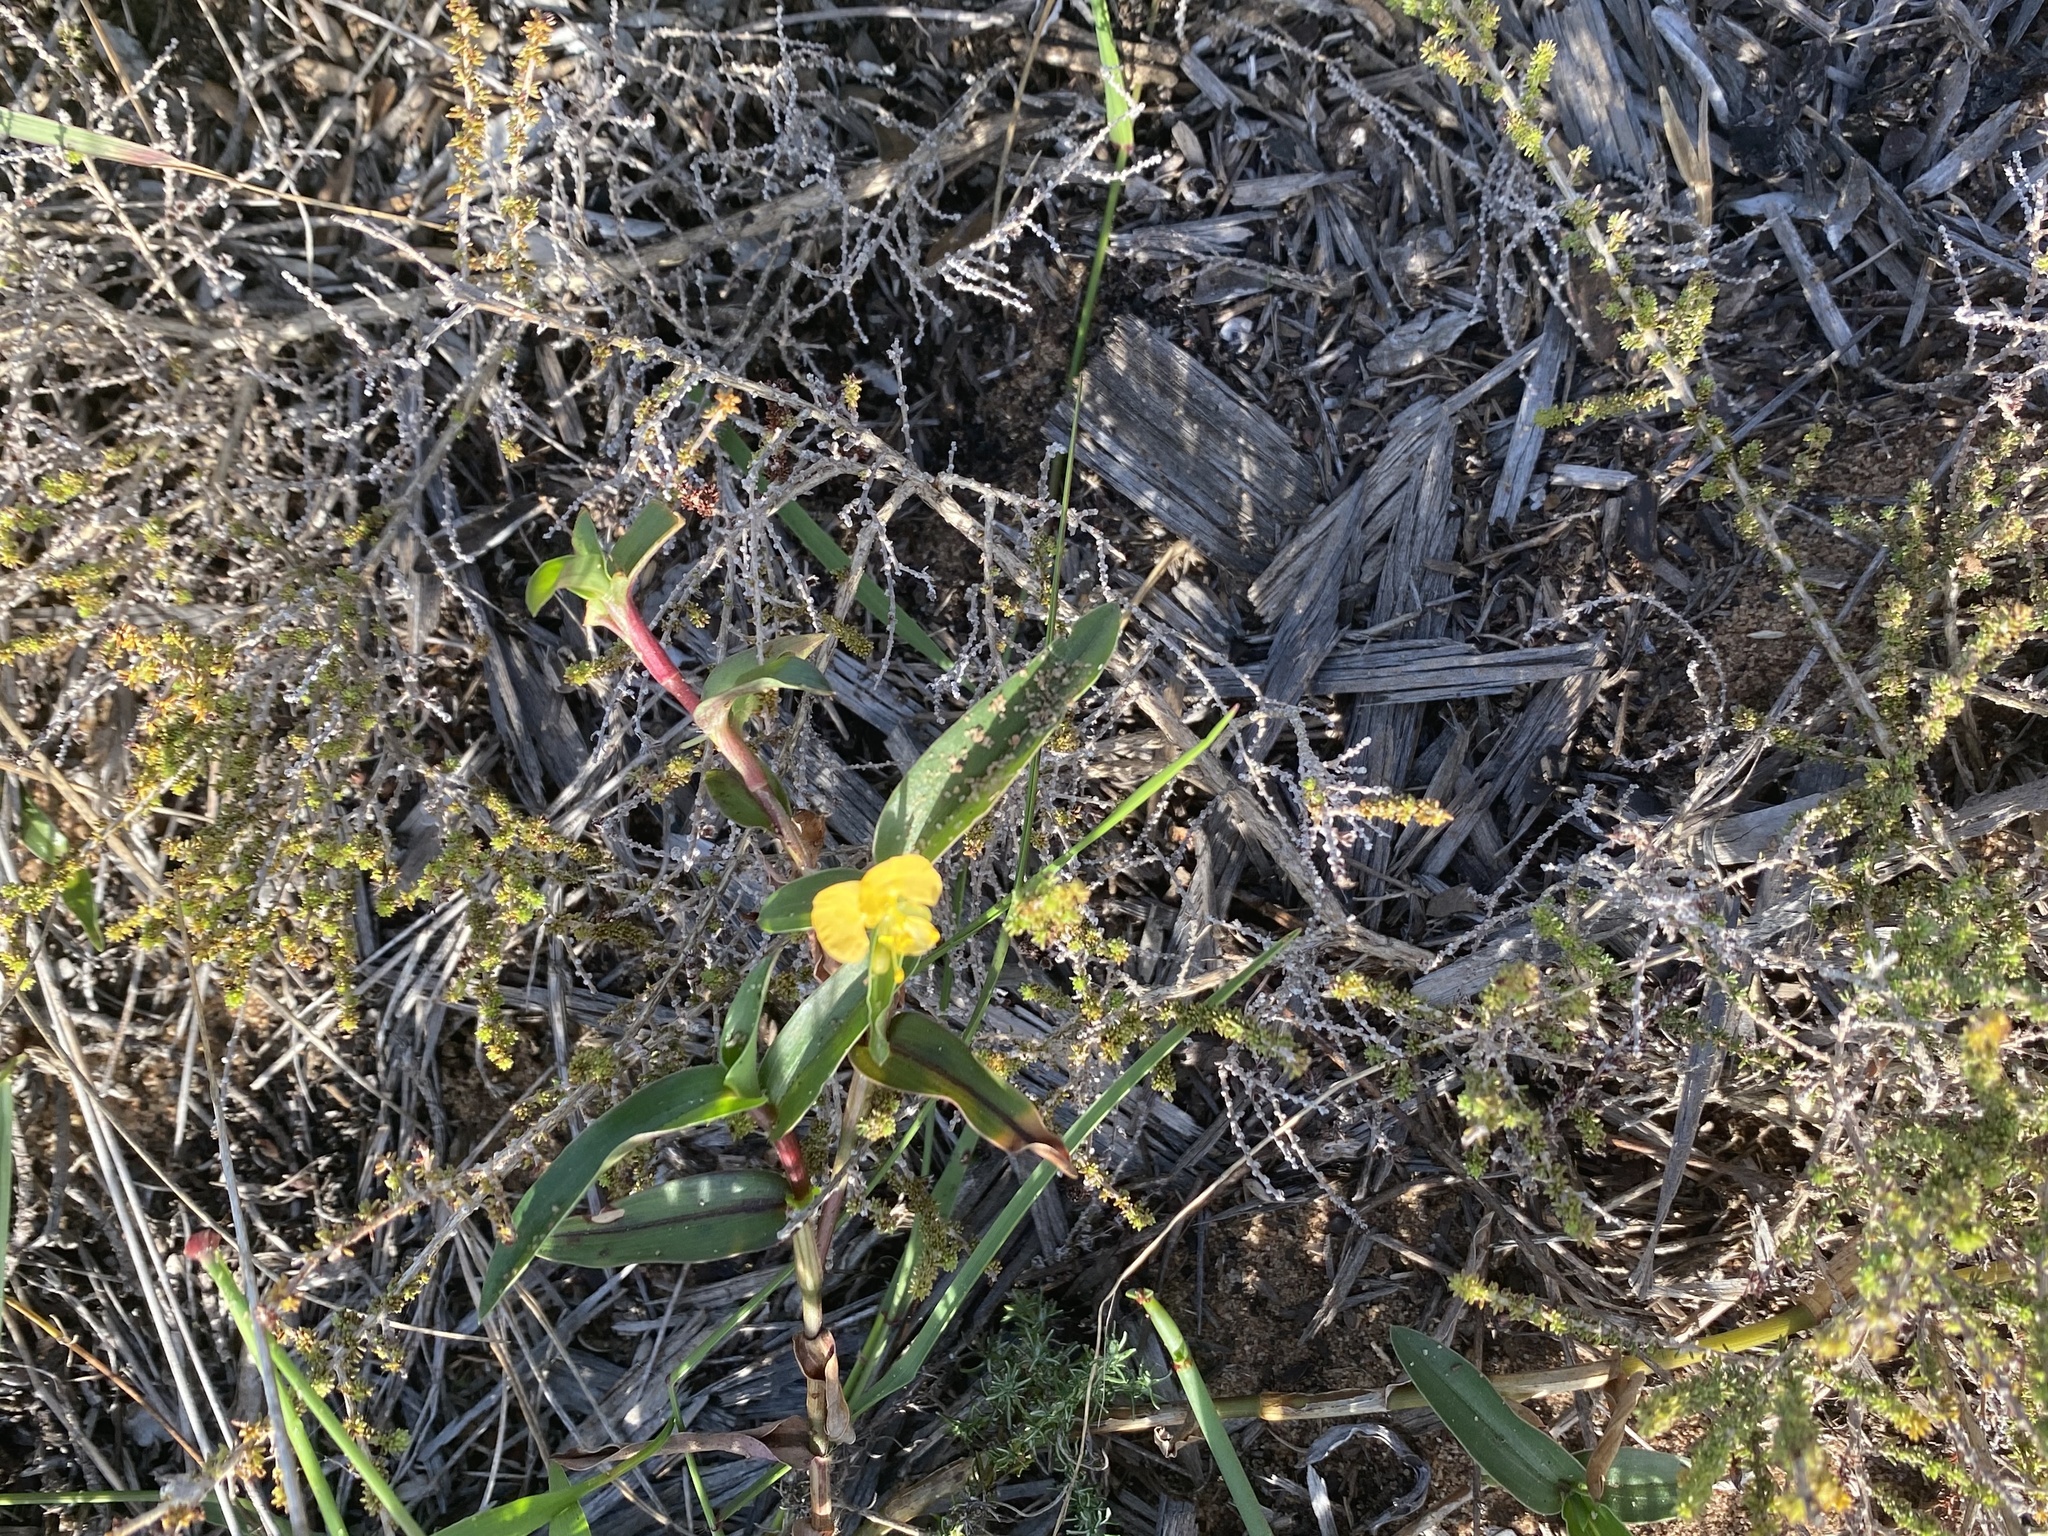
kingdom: Plantae
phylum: Tracheophyta
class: Liliopsida
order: Commelinales
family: Commelinaceae
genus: Commelina
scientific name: Commelina africana
